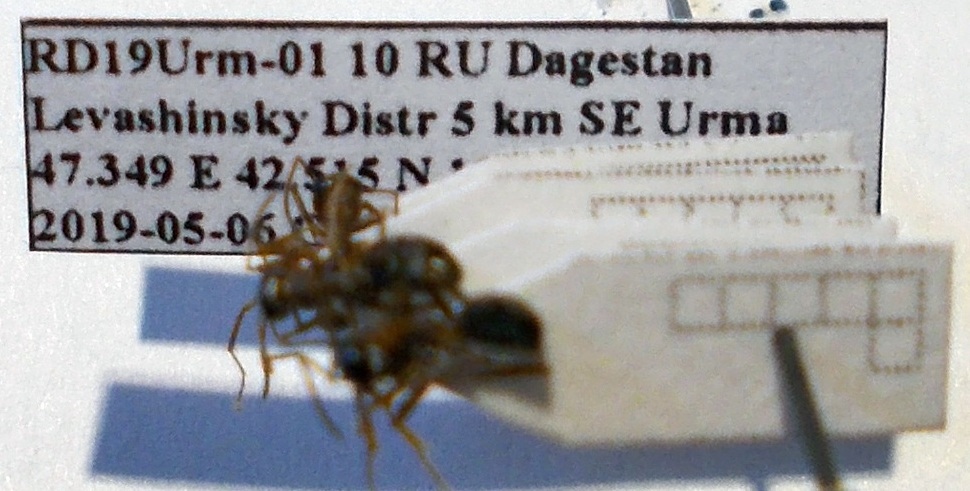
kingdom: Animalia
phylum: Arthropoda
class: Insecta
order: Hymenoptera
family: Formicidae
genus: Formica
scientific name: Formica cunicularia
